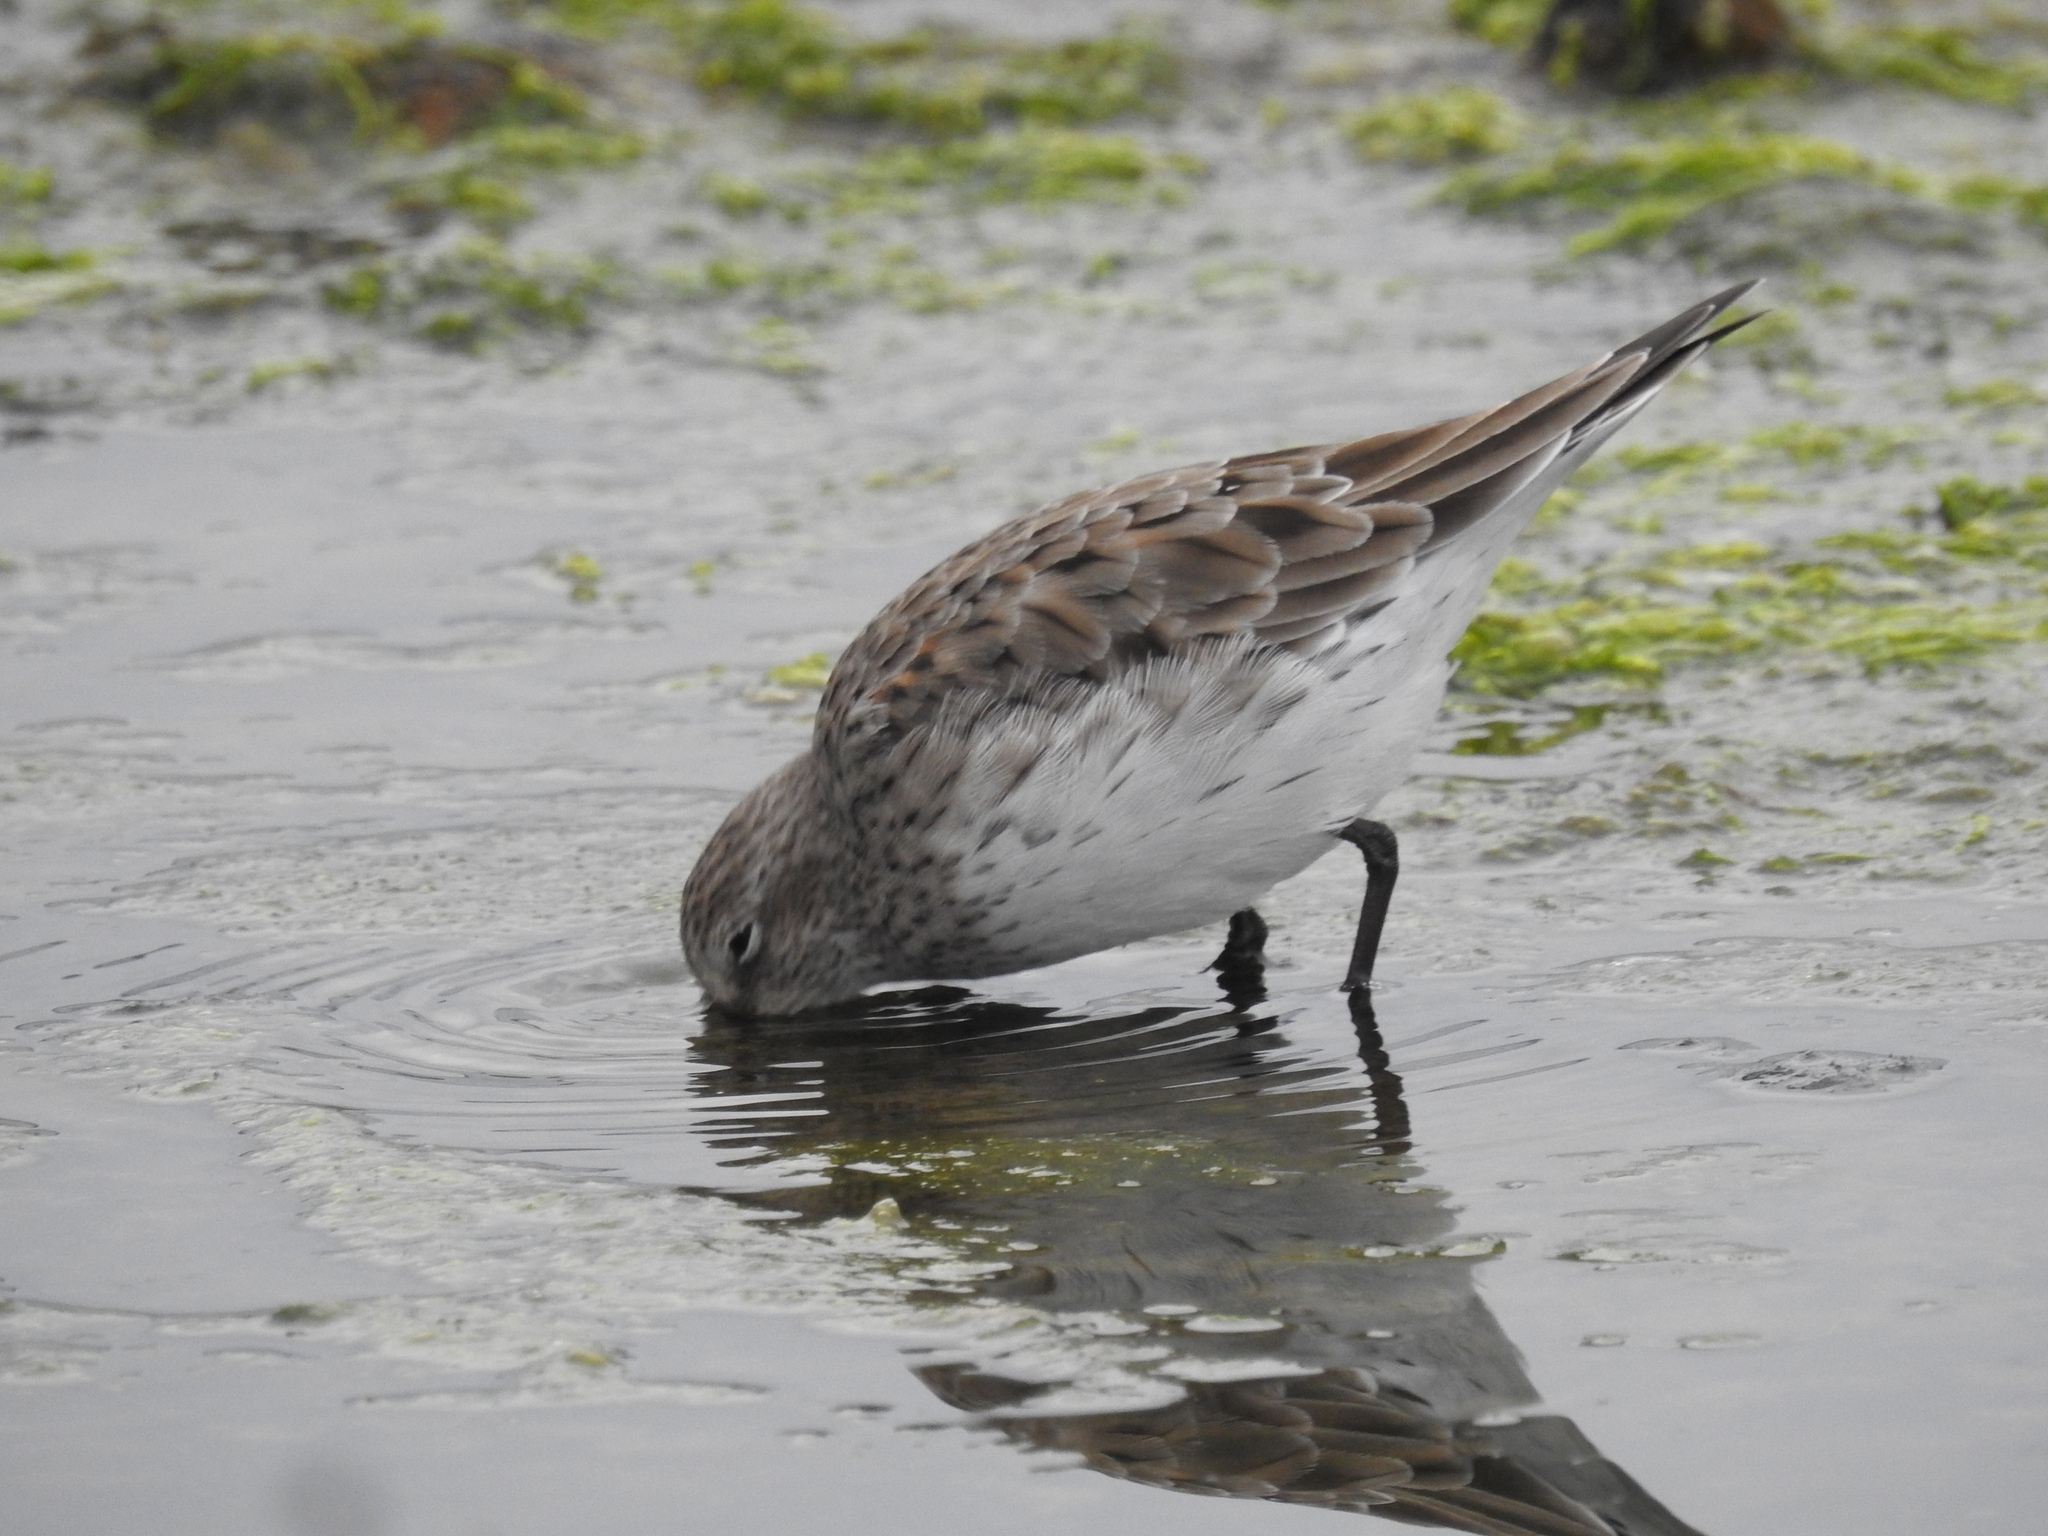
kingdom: Animalia
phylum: Chordata
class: Aves
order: Charadriiformes
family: Scolopacidae
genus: Calidris
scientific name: Calidris fuscicollis
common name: White-rumped sandpiper
